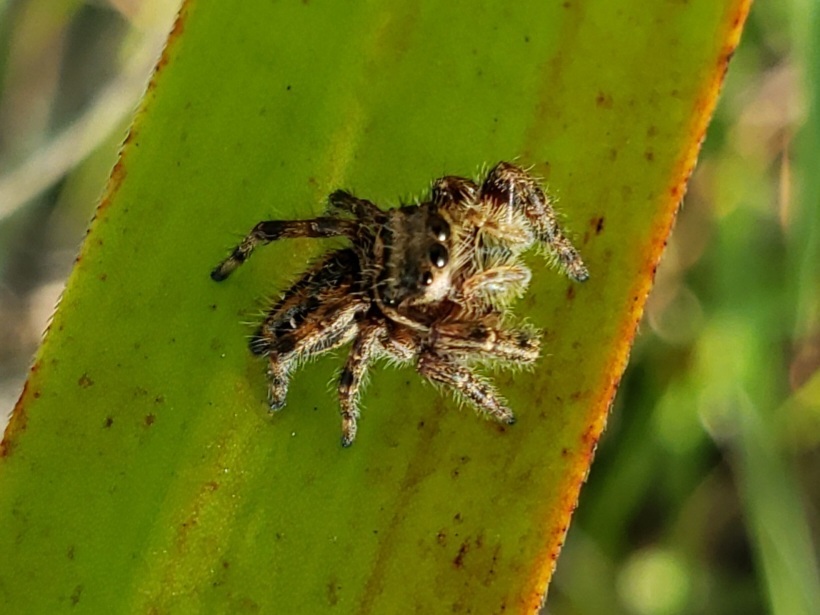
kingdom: Animalia
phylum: Arthropoda
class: Arachnida
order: Araneae
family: Salticidae
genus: Phidippus
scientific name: Phidippus clarus
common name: Brilliant jumping spider
